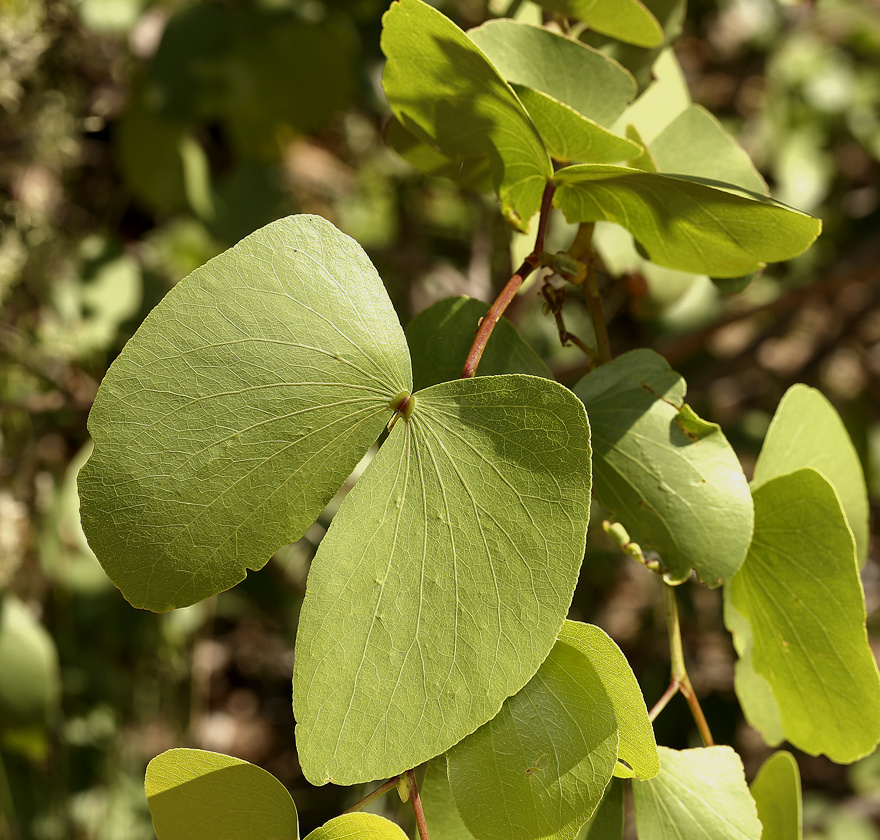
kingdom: Plantae
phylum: Tracheophyta
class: Magnoliopsida
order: Fabales
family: Fabaceae
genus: Colophospermum
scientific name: Colophospermum mopane
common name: Mopane
